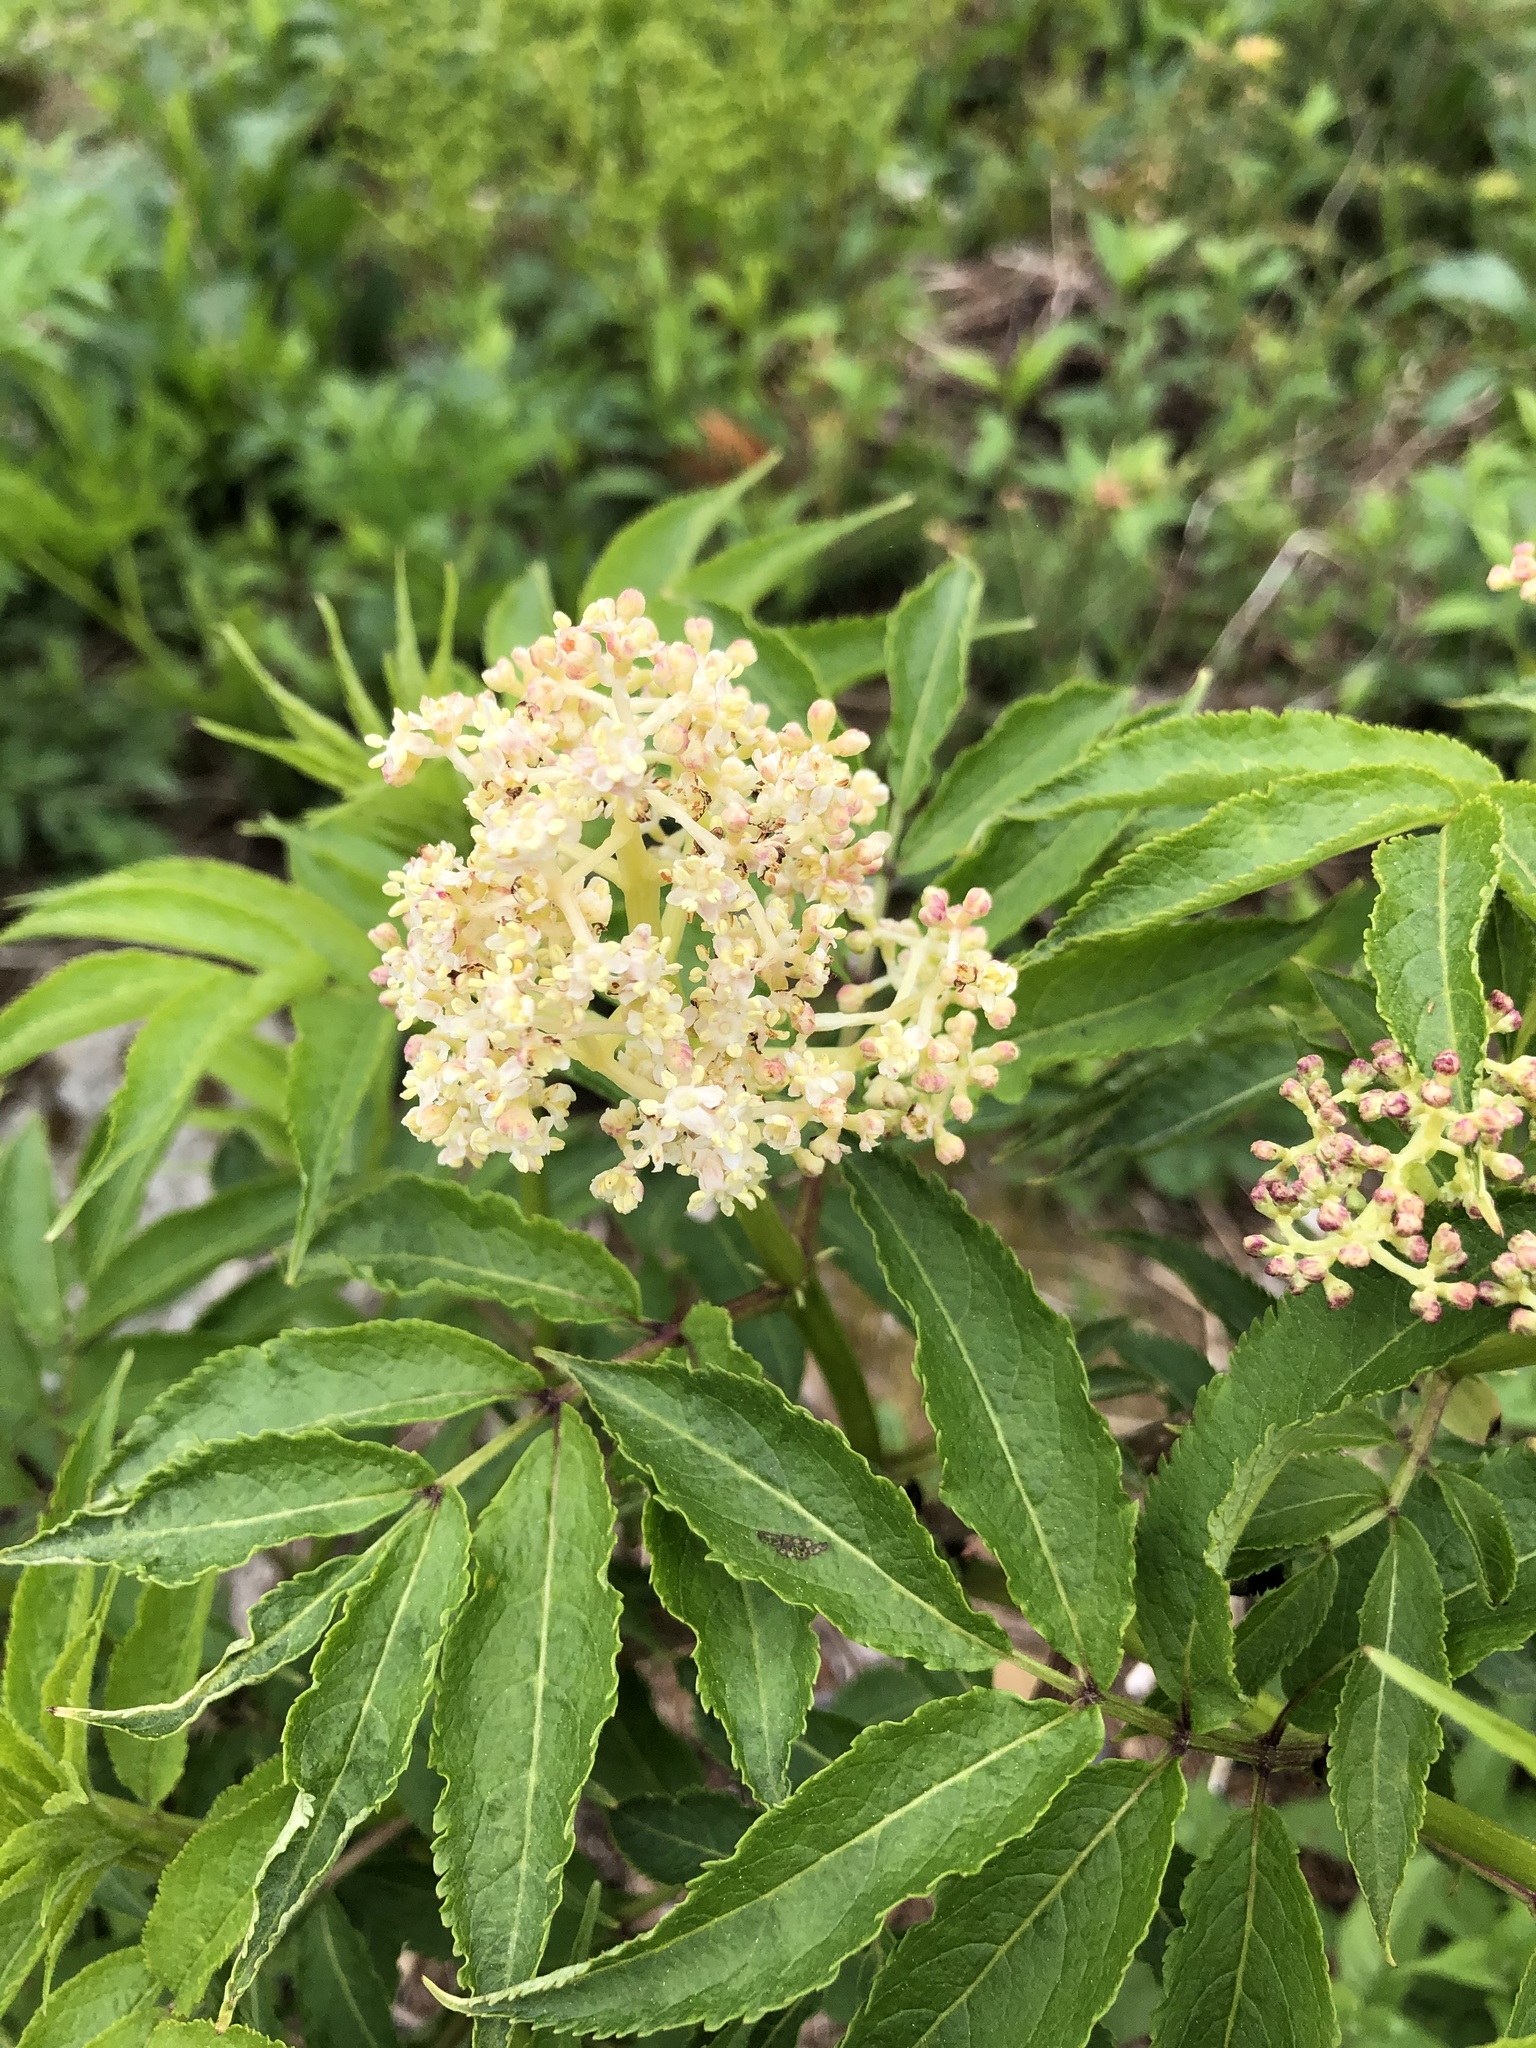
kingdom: Plantae
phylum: Tracheophyta
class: Magnoliopsida
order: Dipsacales
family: Viburnaceae
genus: Sambucus
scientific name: Sambucus racemosa
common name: Red-berried elder
